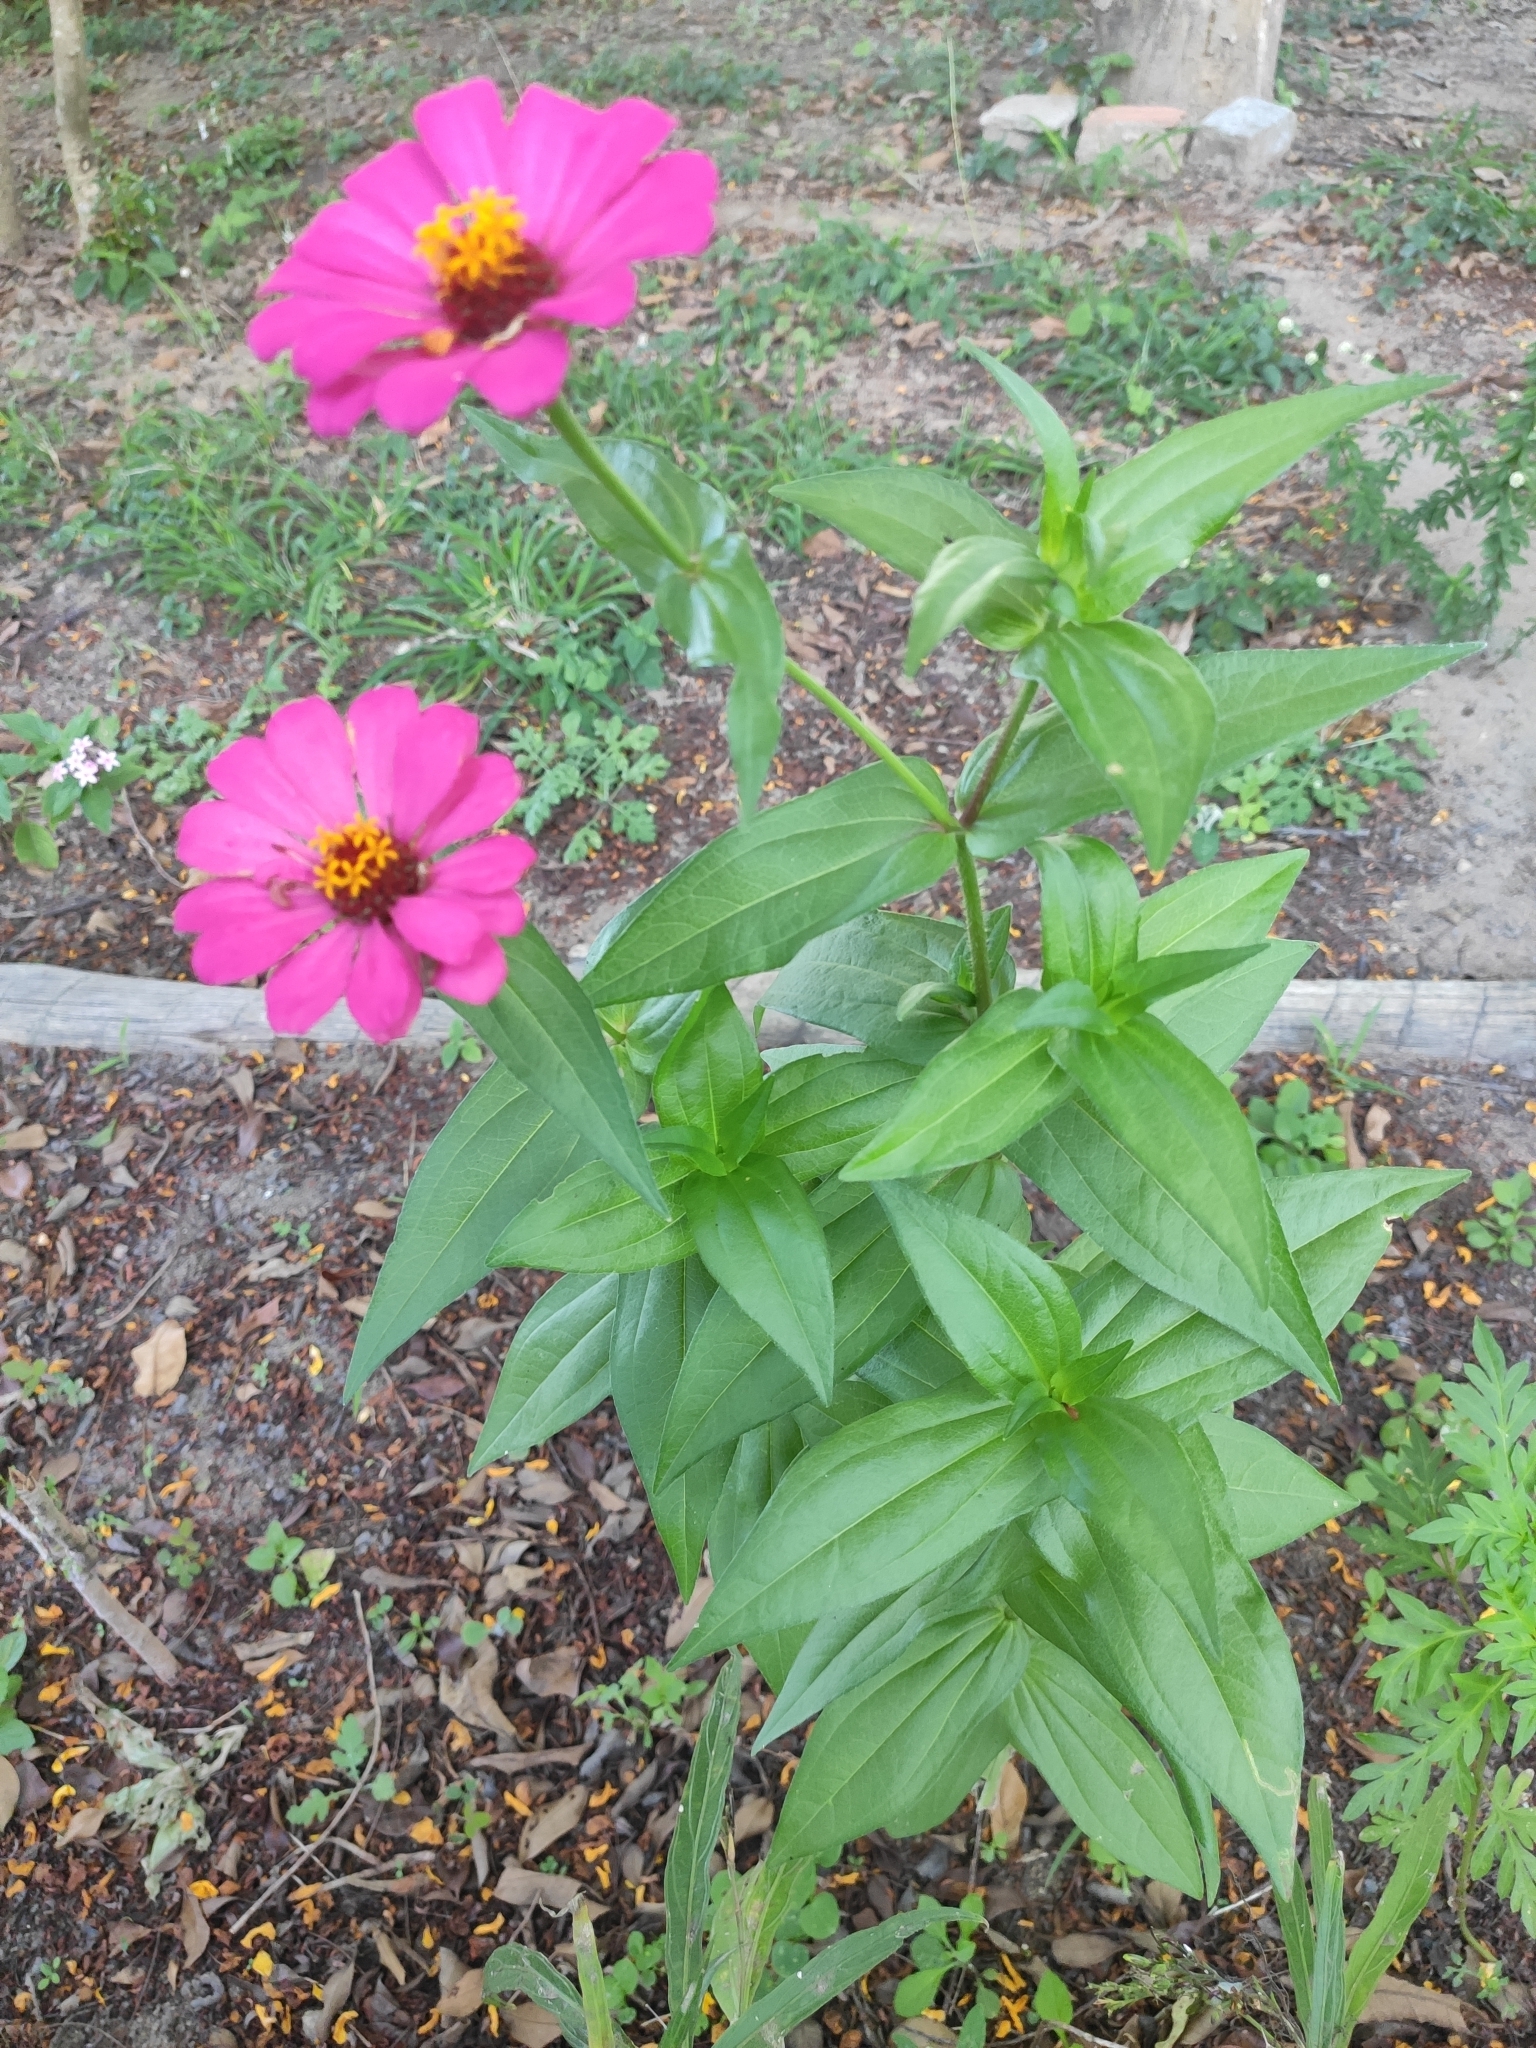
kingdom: Plantae
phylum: Tracheophyta
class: Magnoliopsida
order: Asterales
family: Asteraceae
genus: Zinnia
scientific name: Zinnia elegans
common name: Youth-and-age
